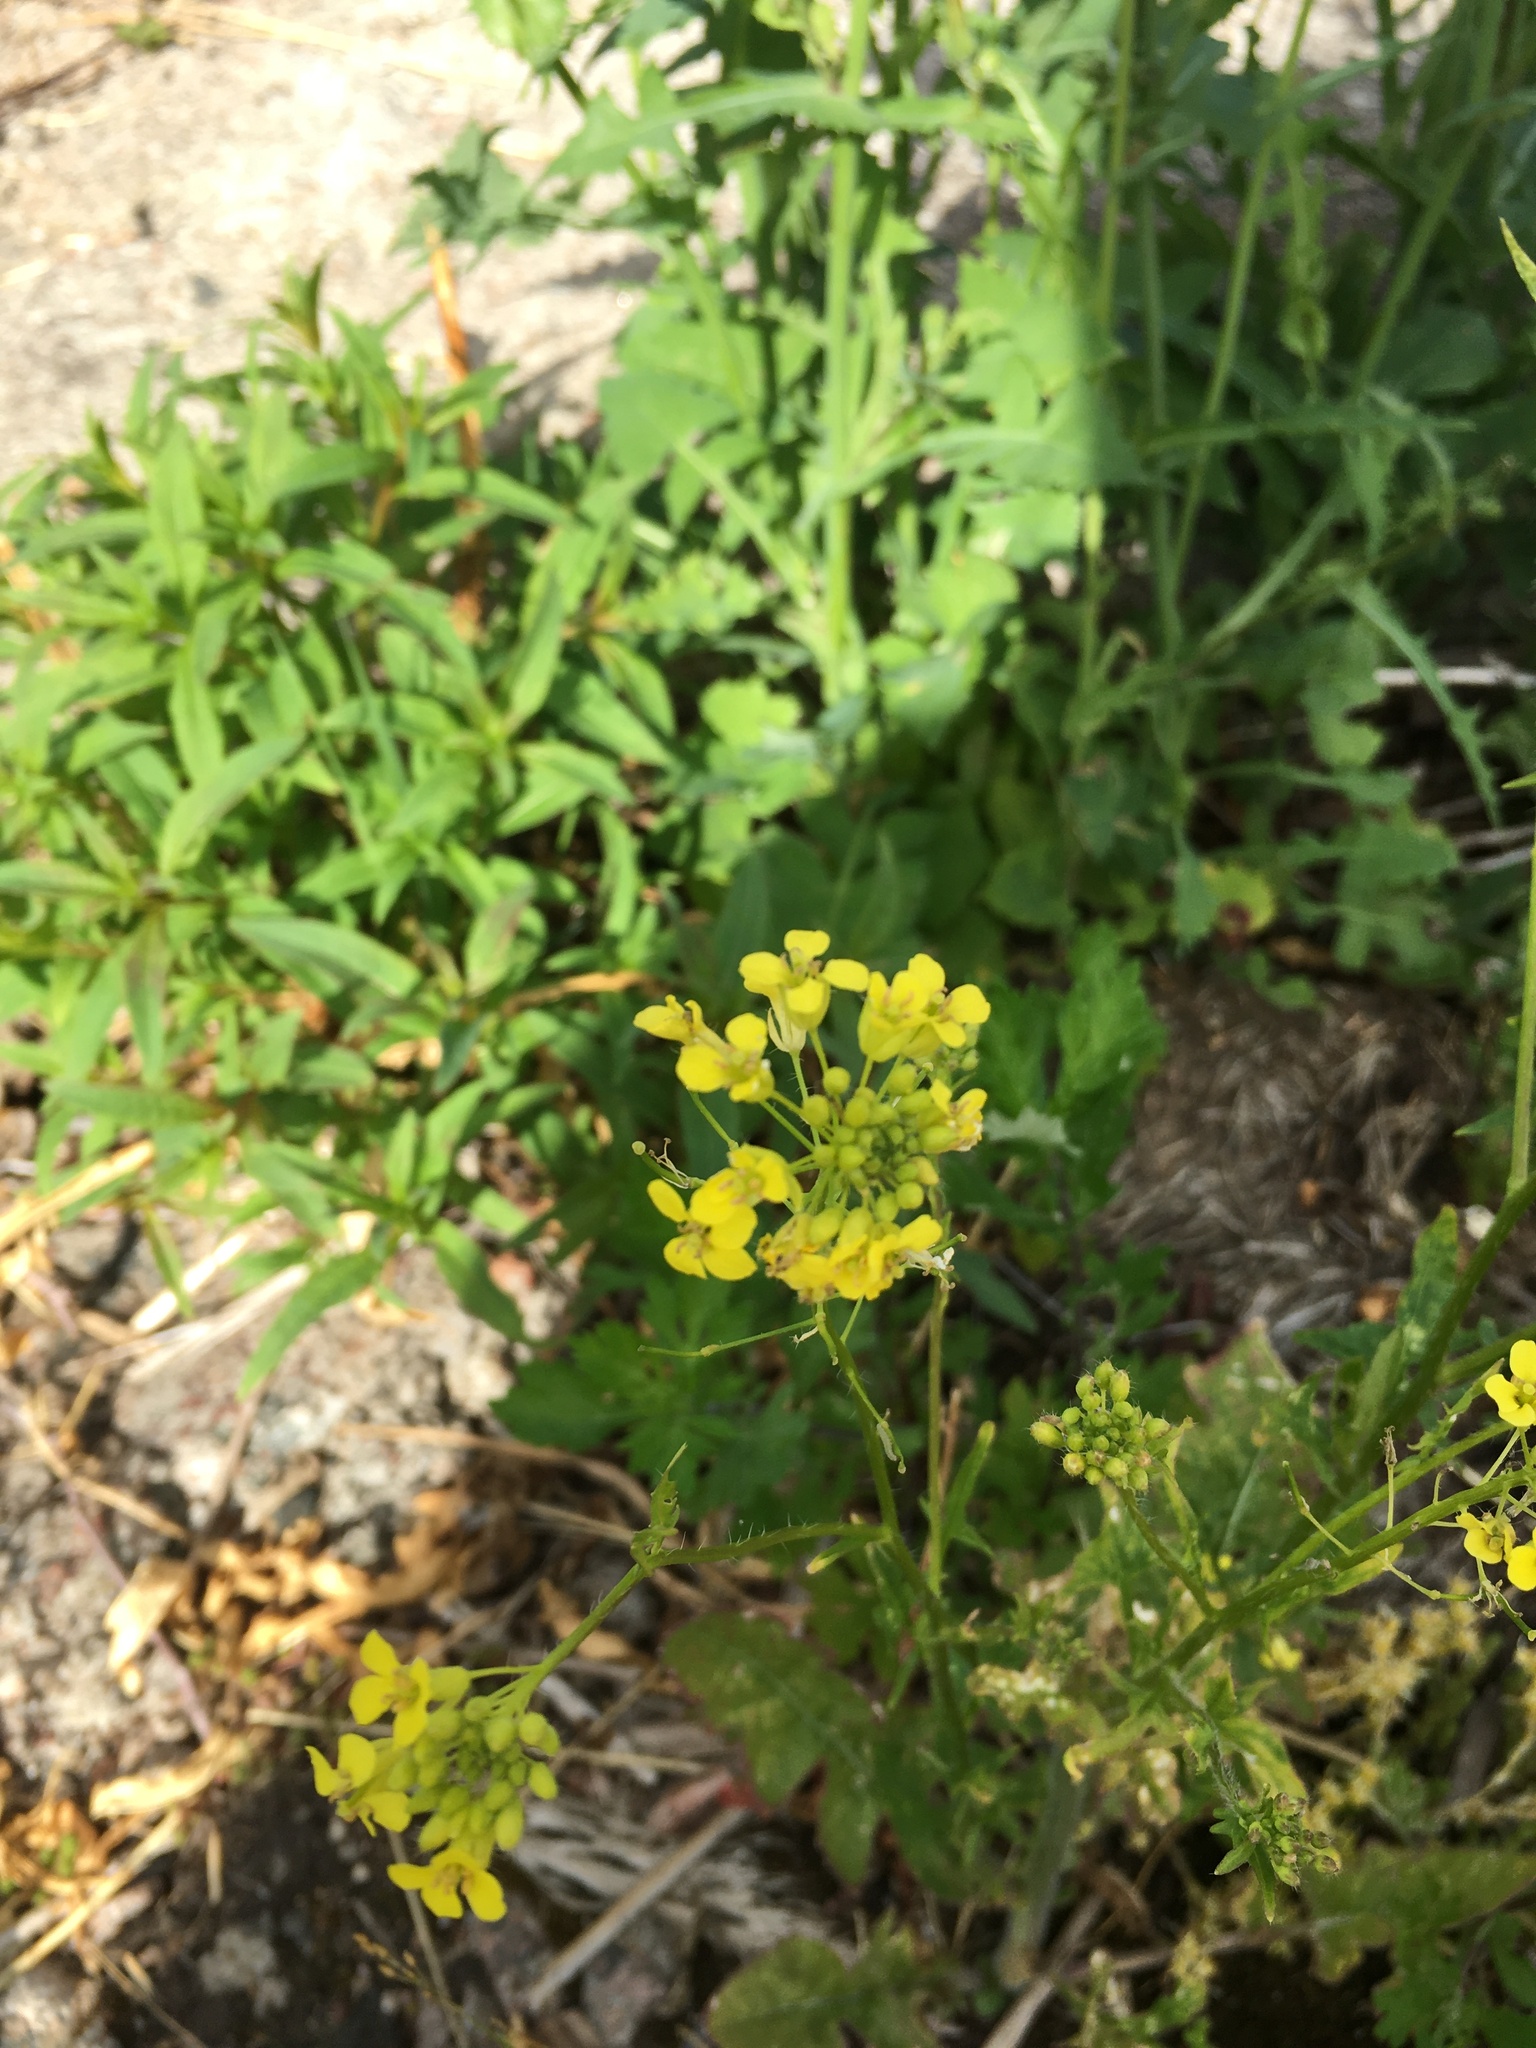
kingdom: Plantae
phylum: Tracheophyta
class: Magnoliopsida
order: Brassicales
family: Brassicaceae
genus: Sisymbrium
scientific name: Sisymbrium loeselii
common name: False london-rocket
